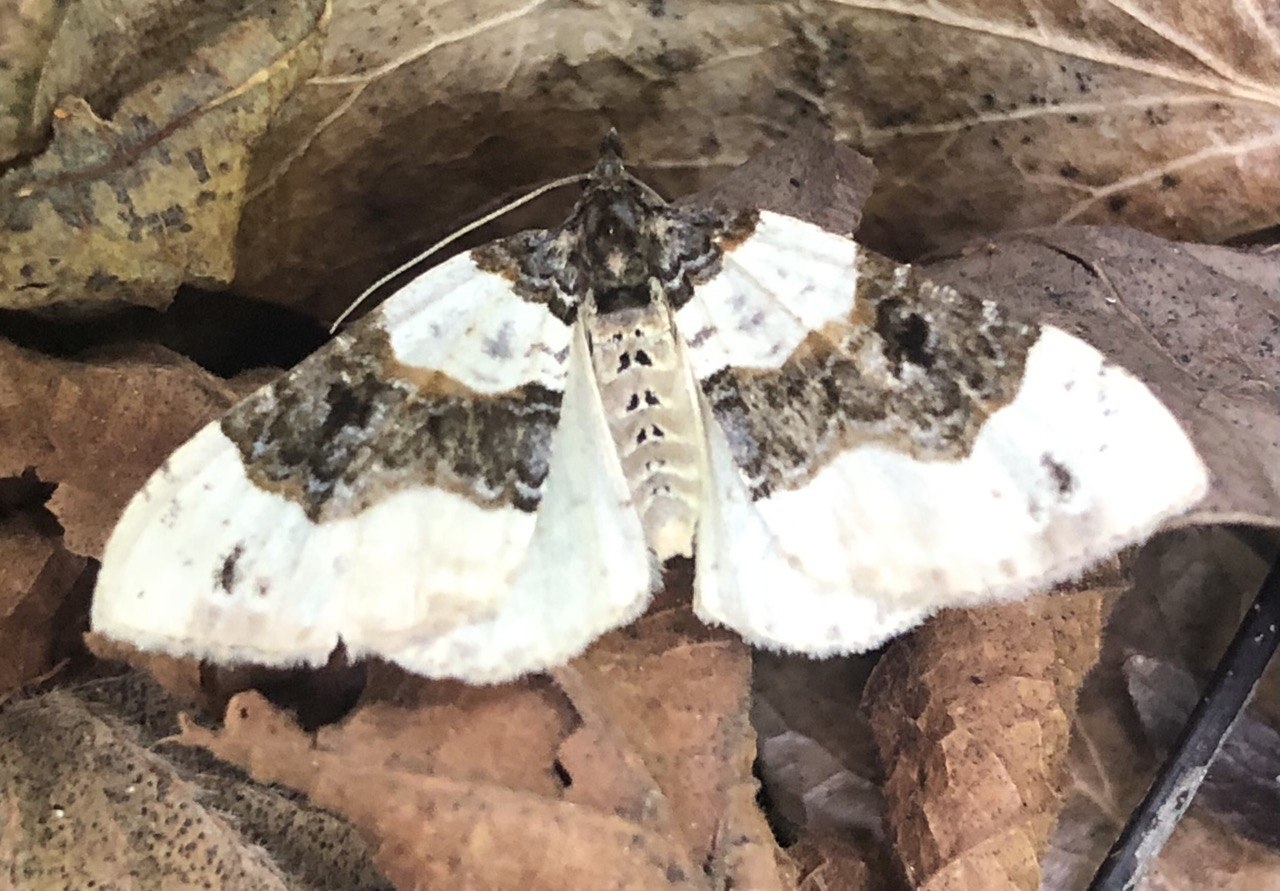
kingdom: Animalia
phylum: Arthropoda
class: Insecta
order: Lepidoptera
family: Geometridae
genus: Cosmorhoe
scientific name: Cosmorhoe ocellata
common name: Purple bar
